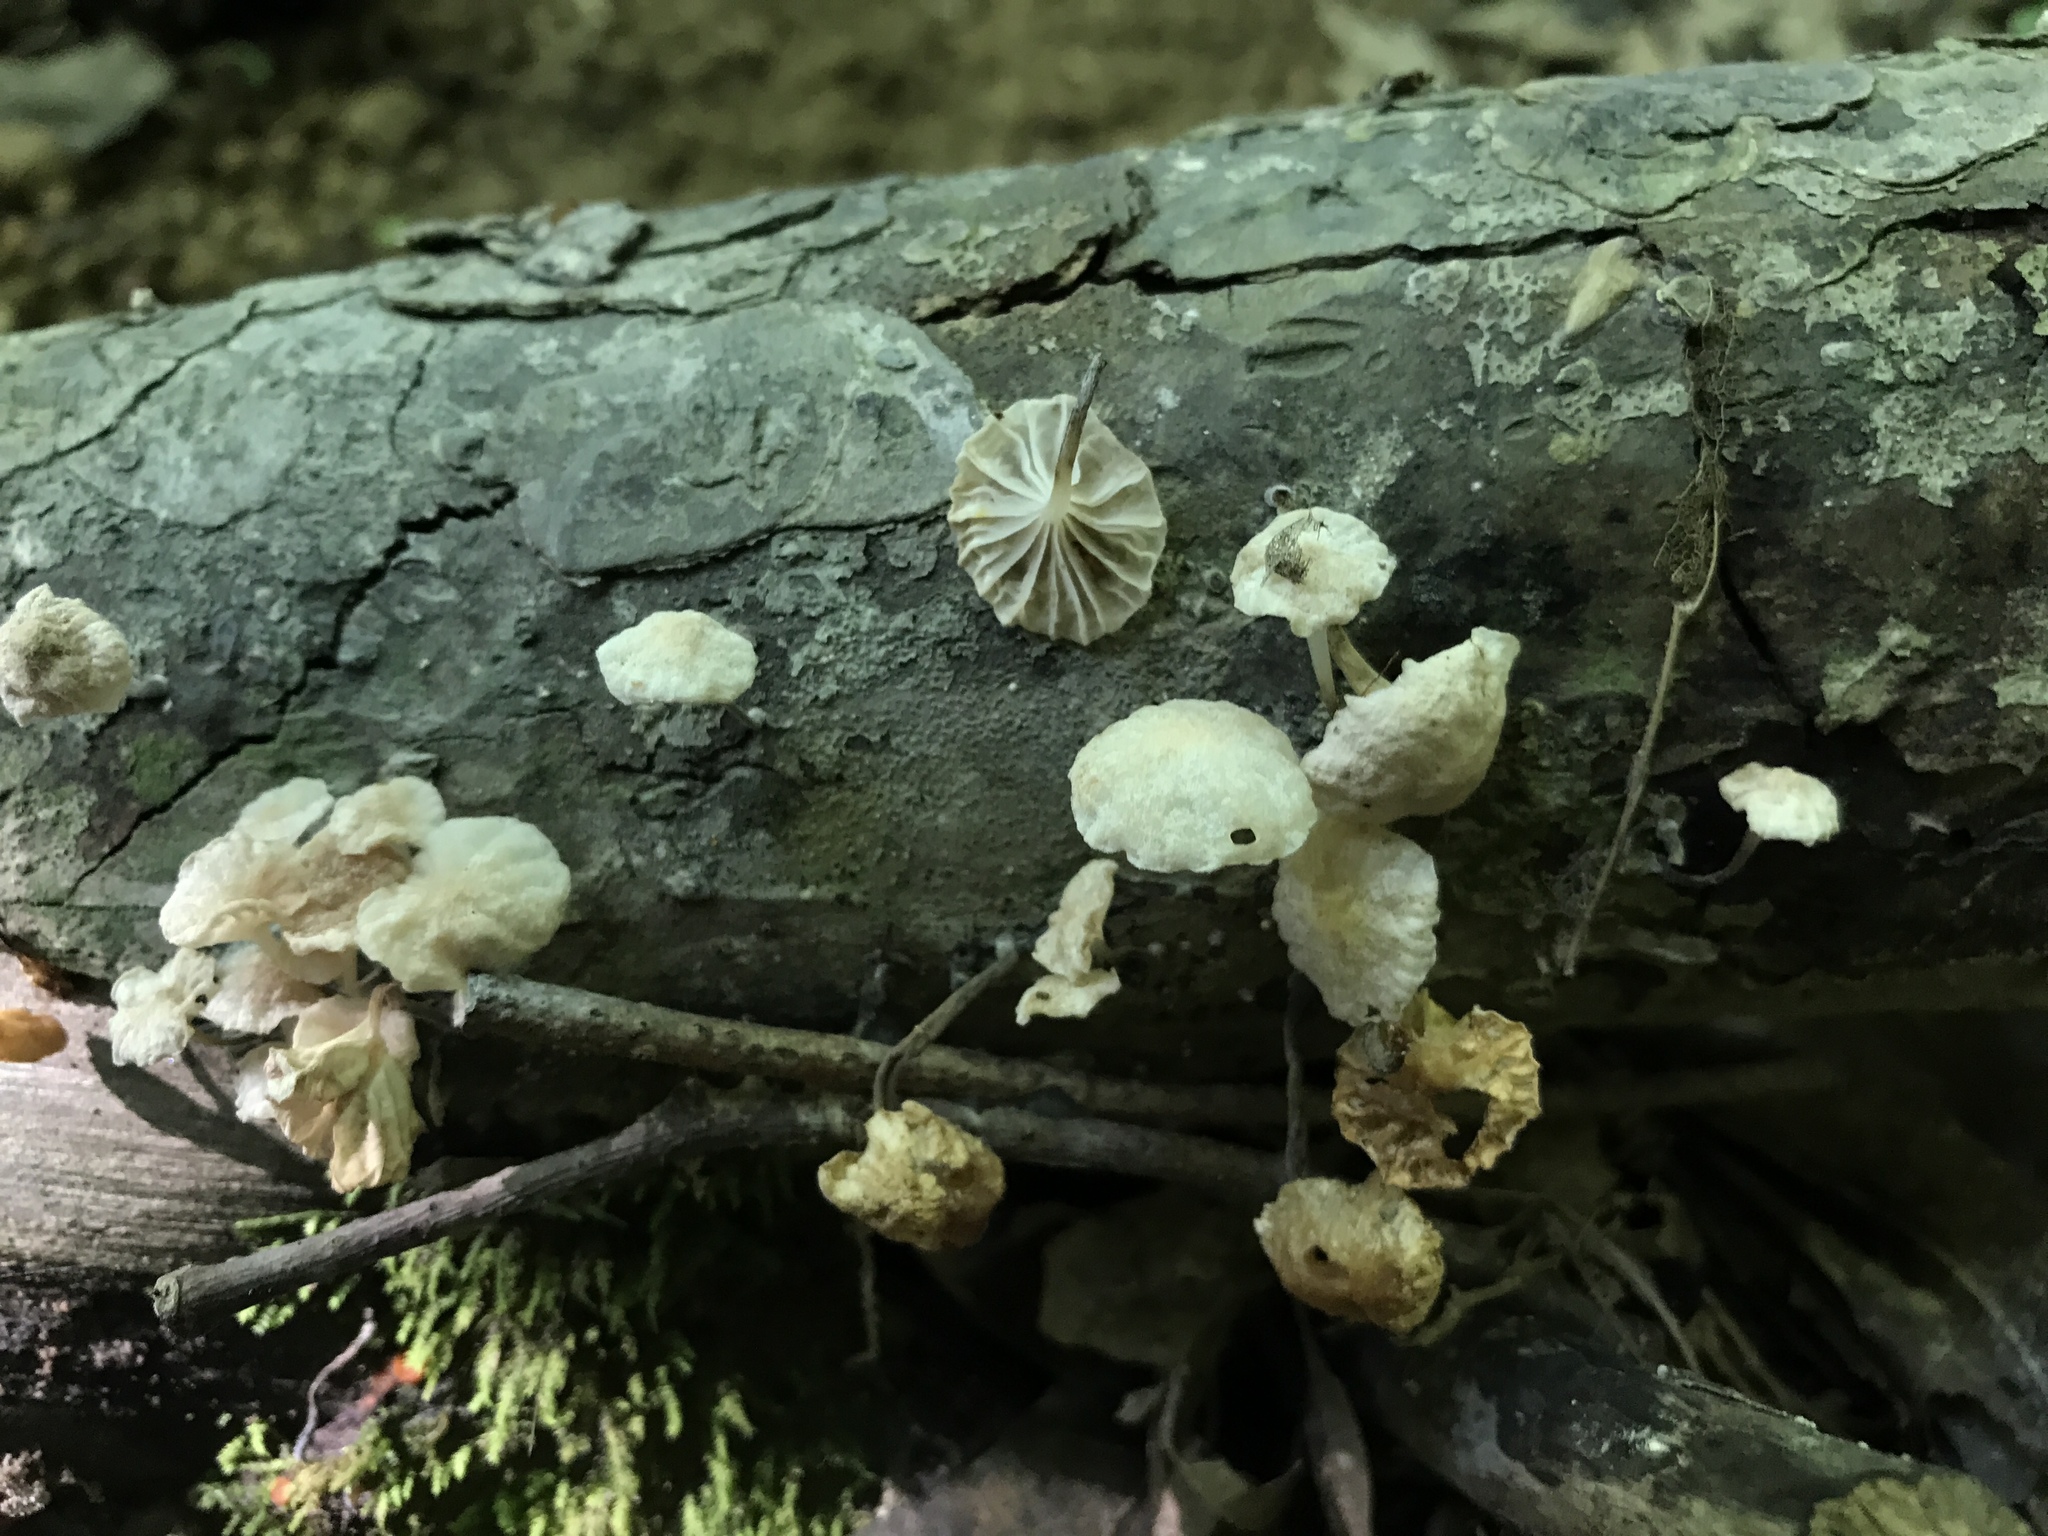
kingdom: Fungi
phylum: Basidiomycota
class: Agaricomycetes
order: Agaricales
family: Omphalotaceae
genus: Marasmiellus
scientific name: Marasmiellus candidus
